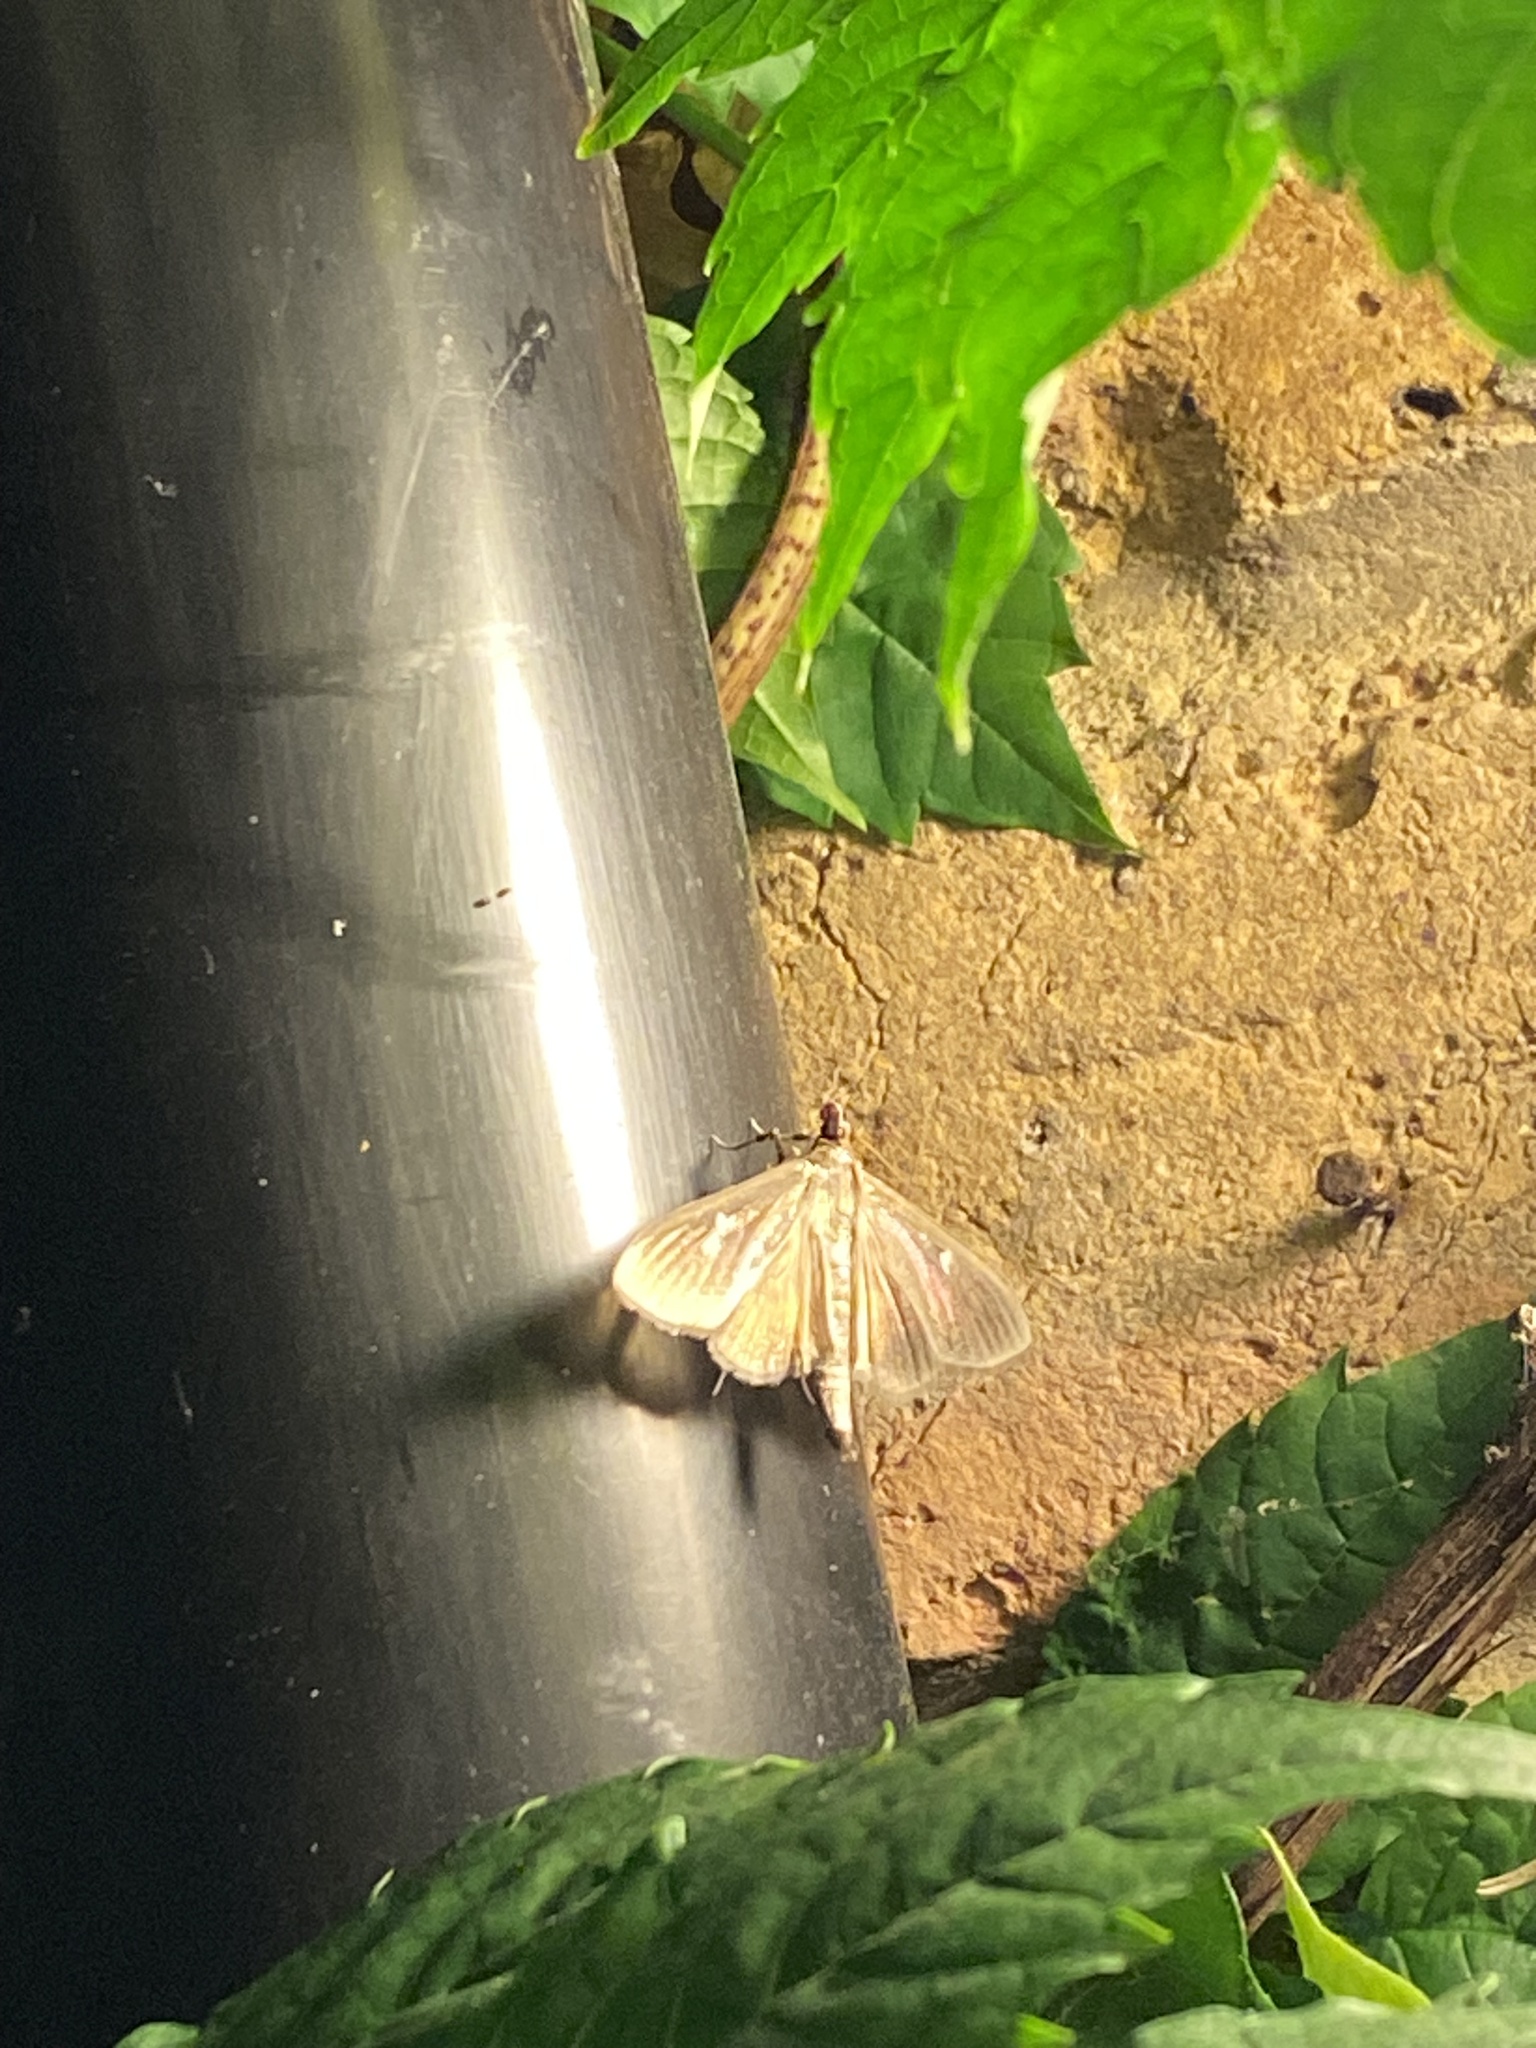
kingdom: Animalia
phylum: Arthropoda
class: Insecta
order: Lepidoptera
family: Crambidae
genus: Cydalima
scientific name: Cydalima perspectalis
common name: Box tree moth
